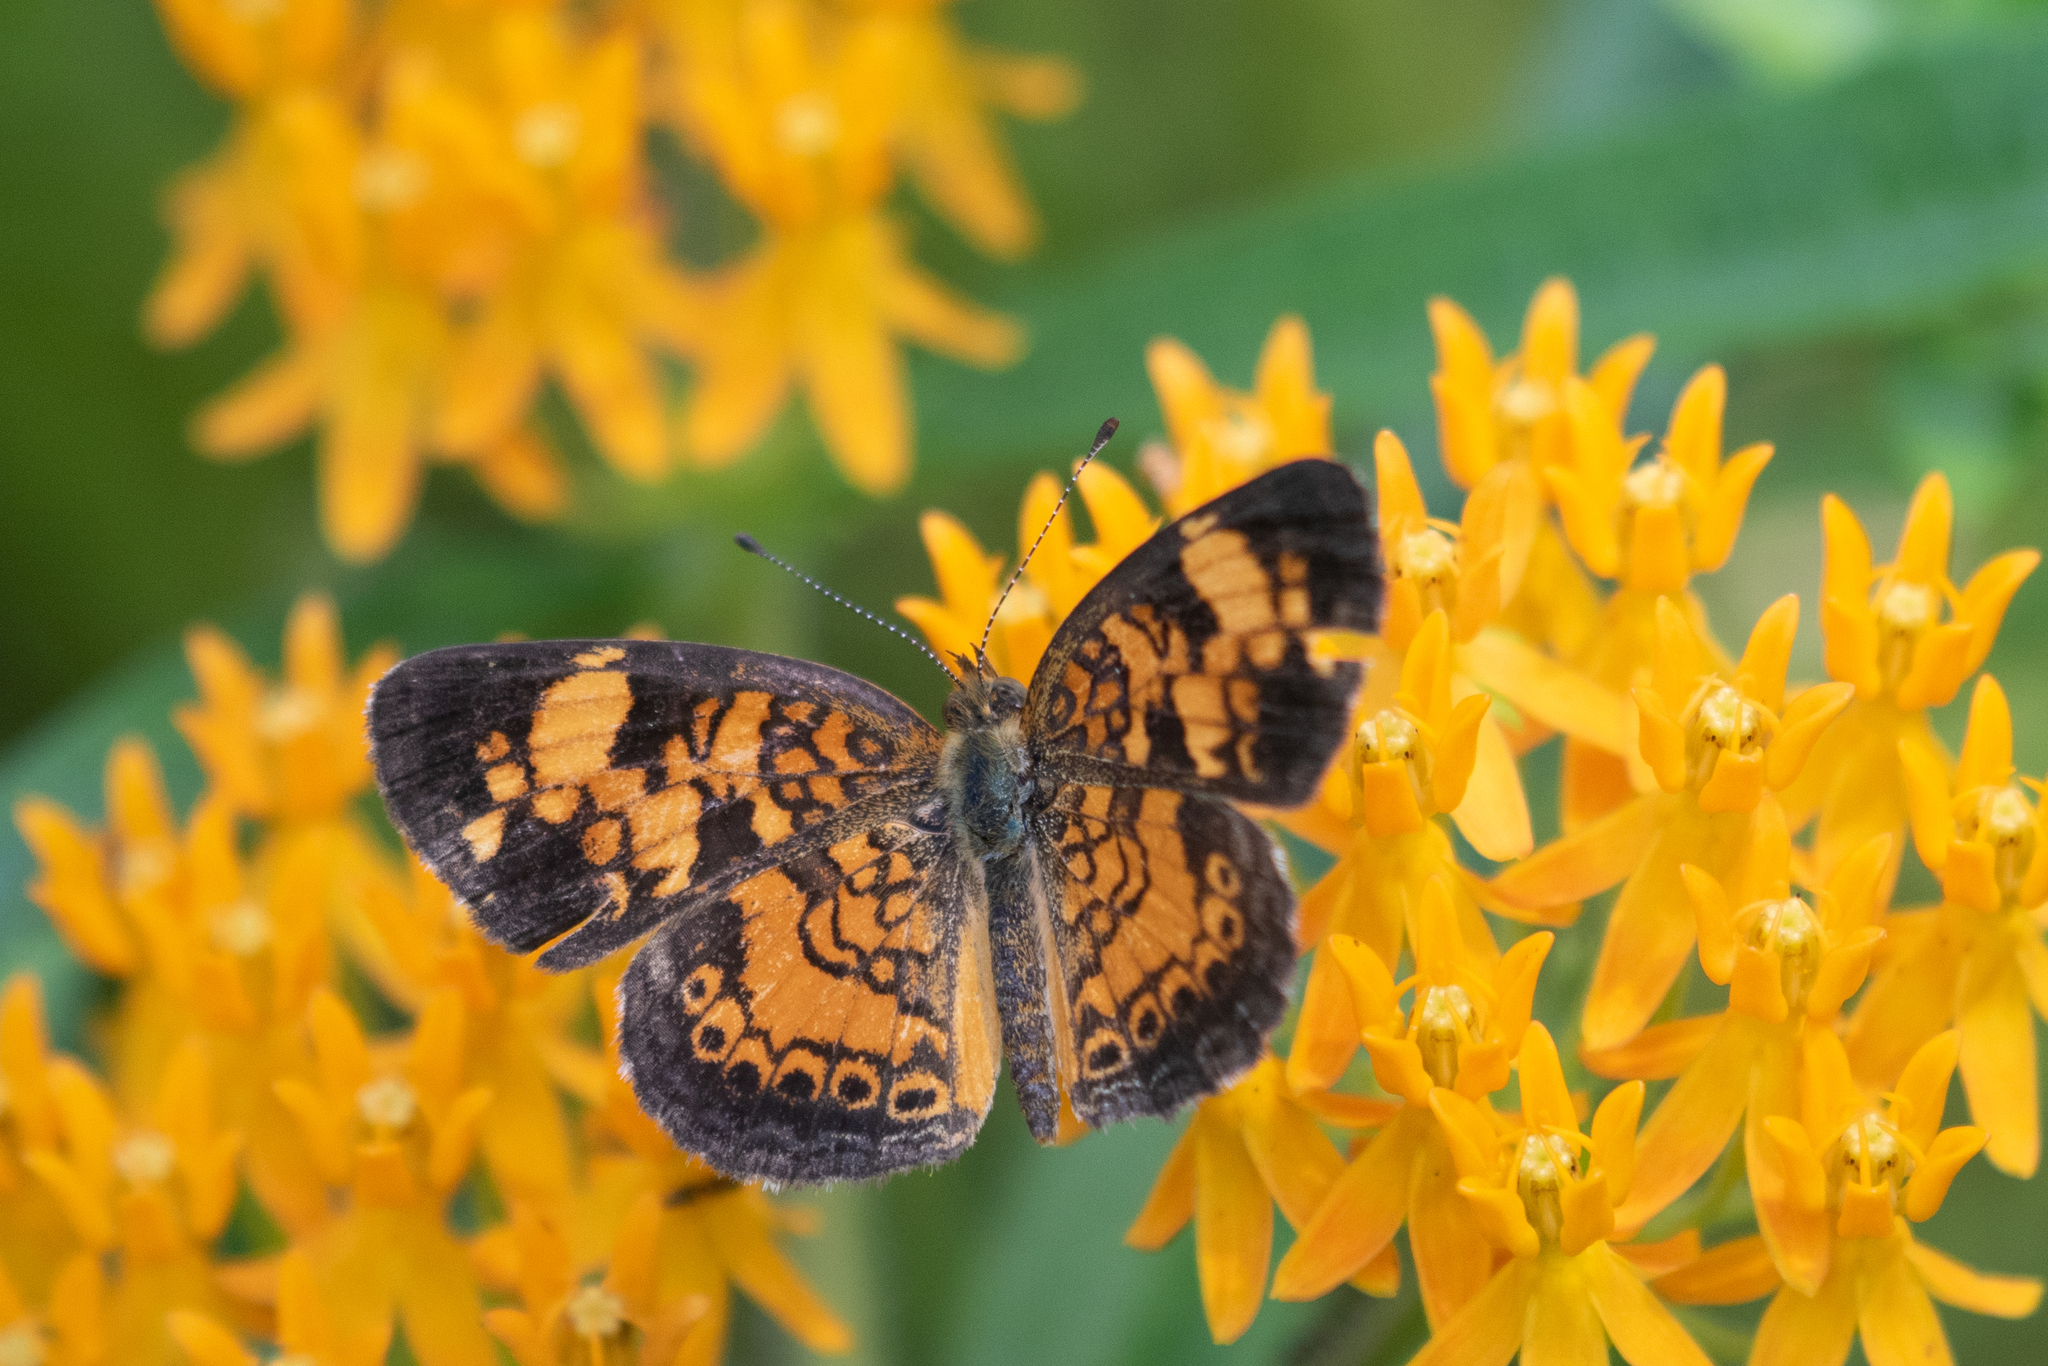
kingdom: Animalia
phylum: Arthropoda
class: Insecta
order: Lepidoptera
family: Nymphalidae
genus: Phyciodes
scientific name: Phyciodes tharos
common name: Pearl crescent
